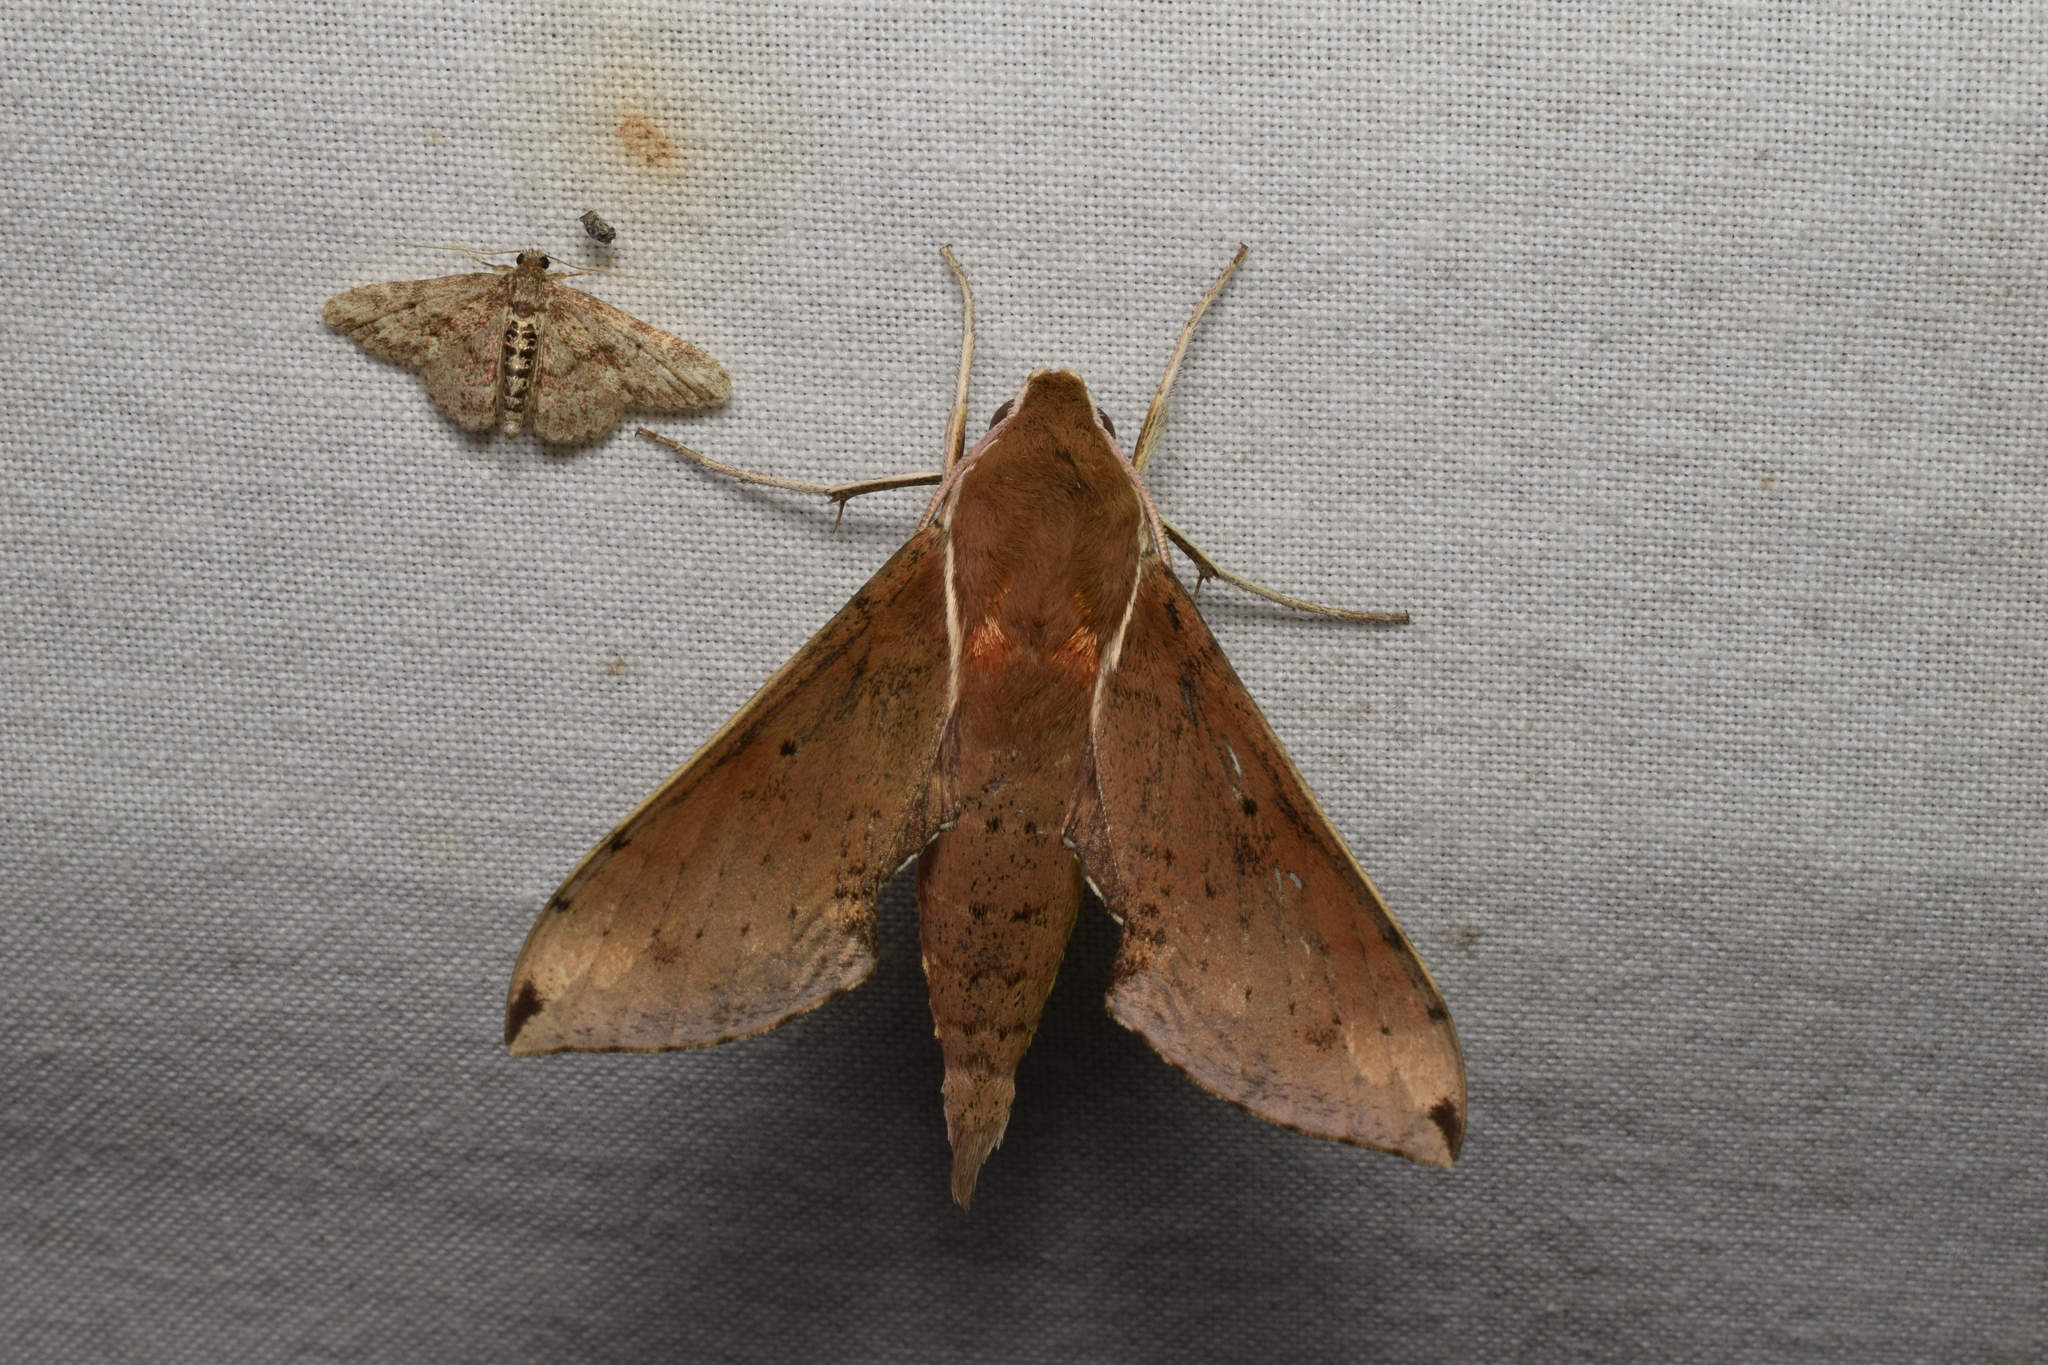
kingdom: Animalia
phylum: Arthropoda
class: Insecta
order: Lepidoptera
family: Sphingidae
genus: Rhagastis
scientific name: Rhagastis mongoliana
